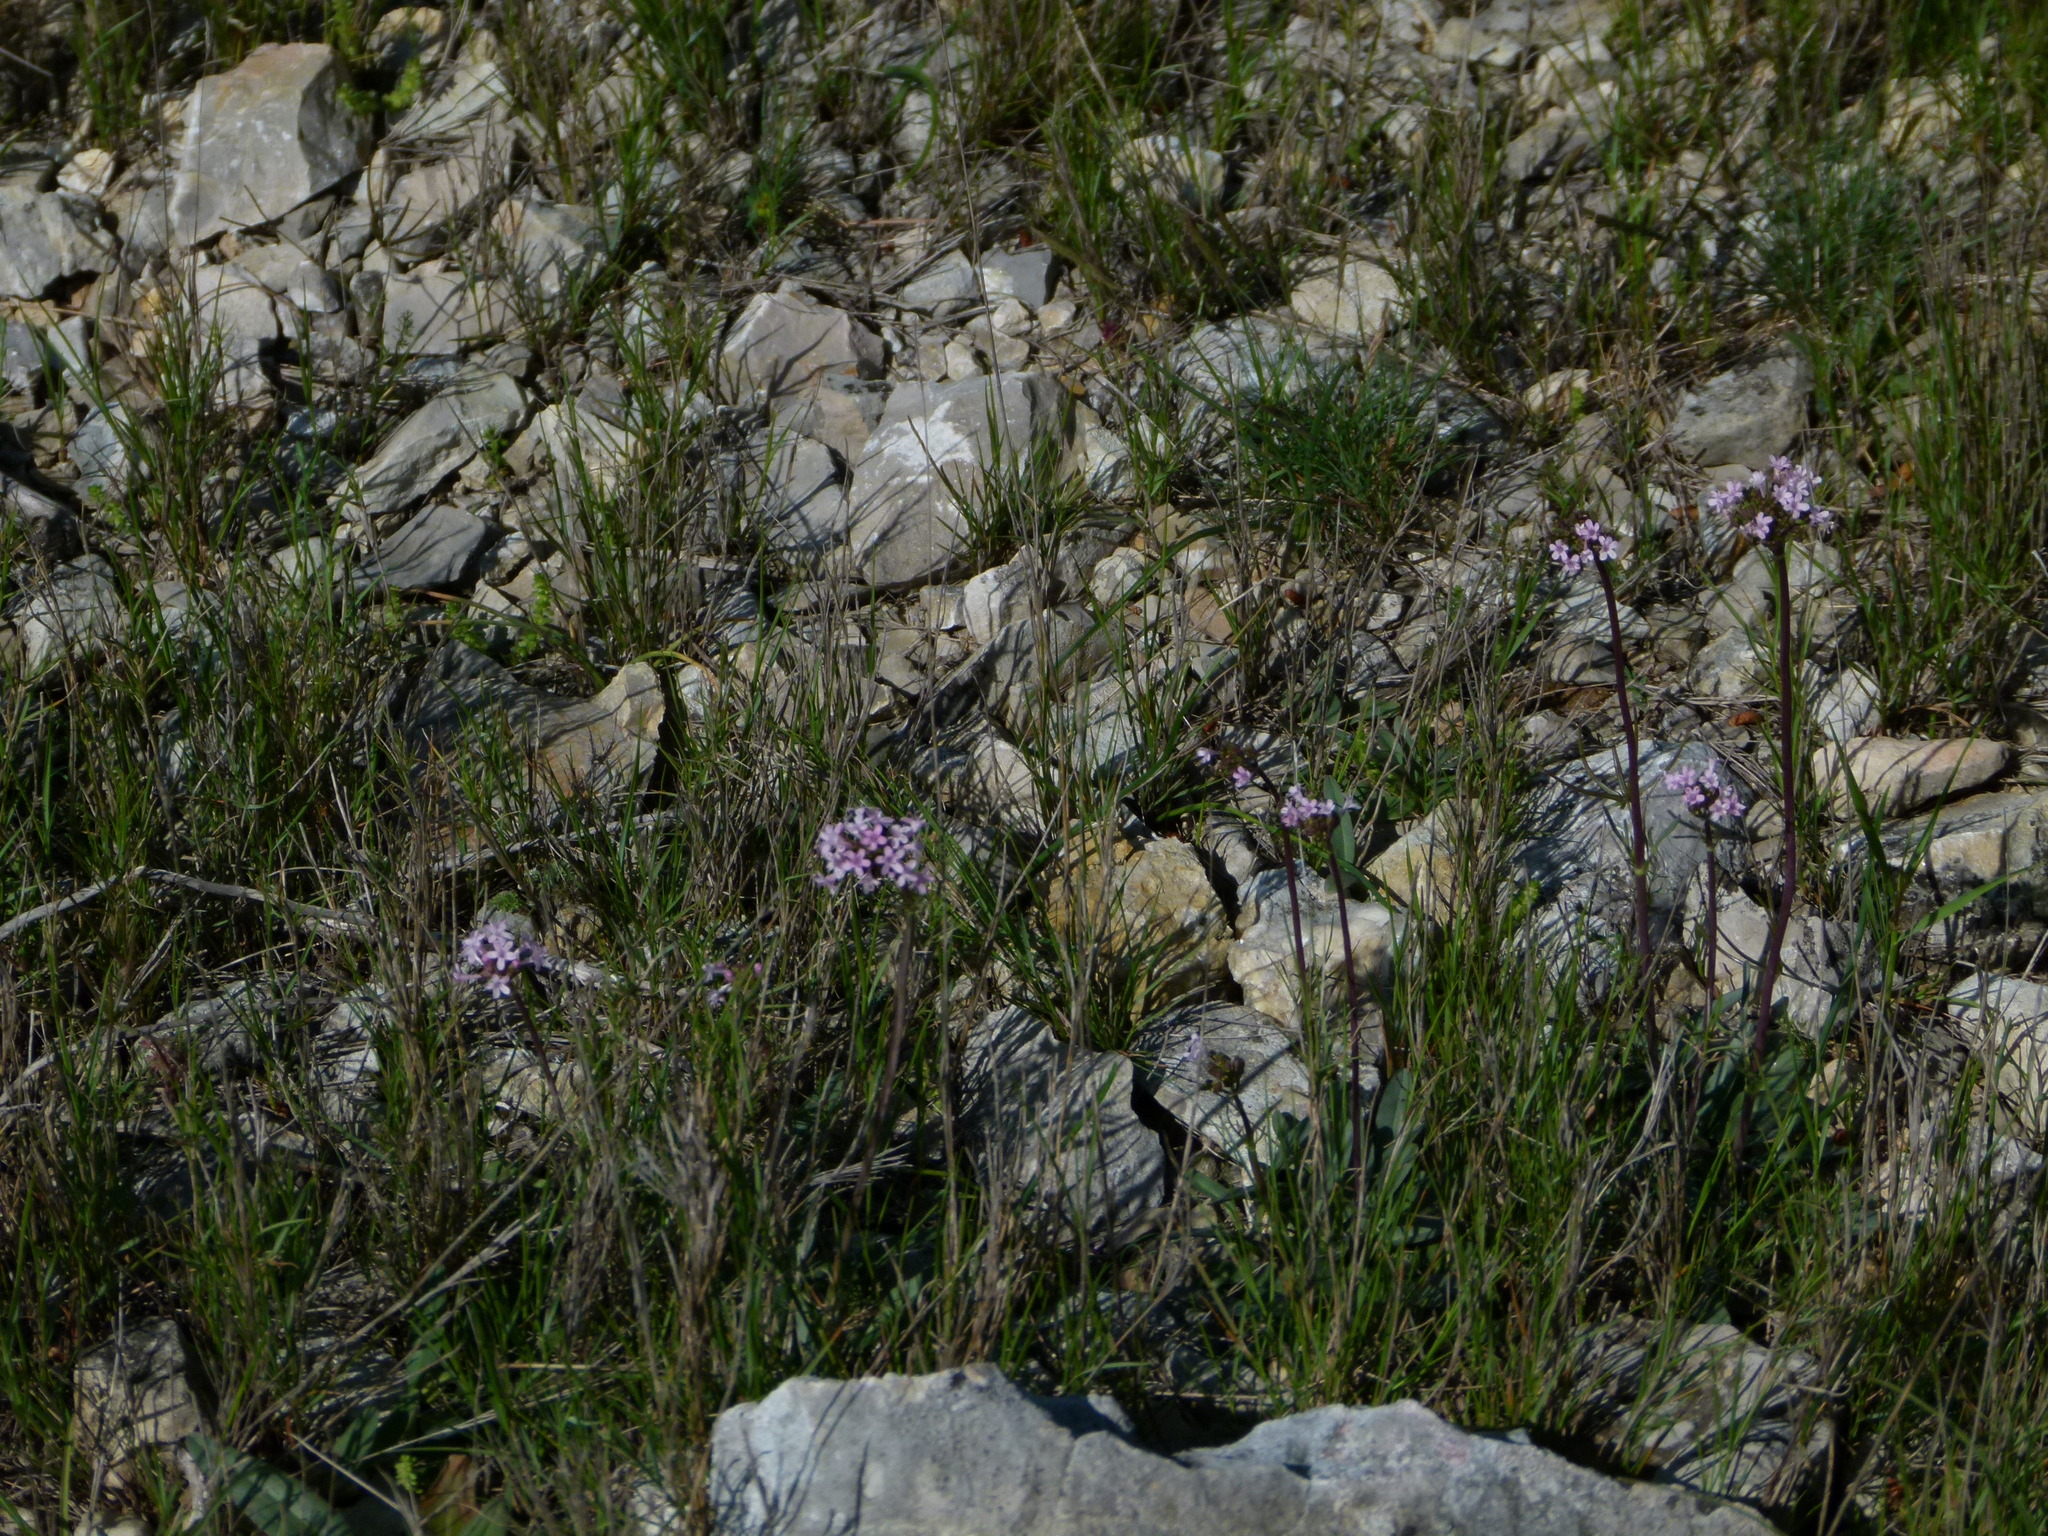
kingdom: Plantae
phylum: Tracheophyta
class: Magnoliopsida
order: Dipsacales
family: Caprifoliaceae
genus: Valeriana
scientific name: Valeriana tuberosa
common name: Tuberous valerian
